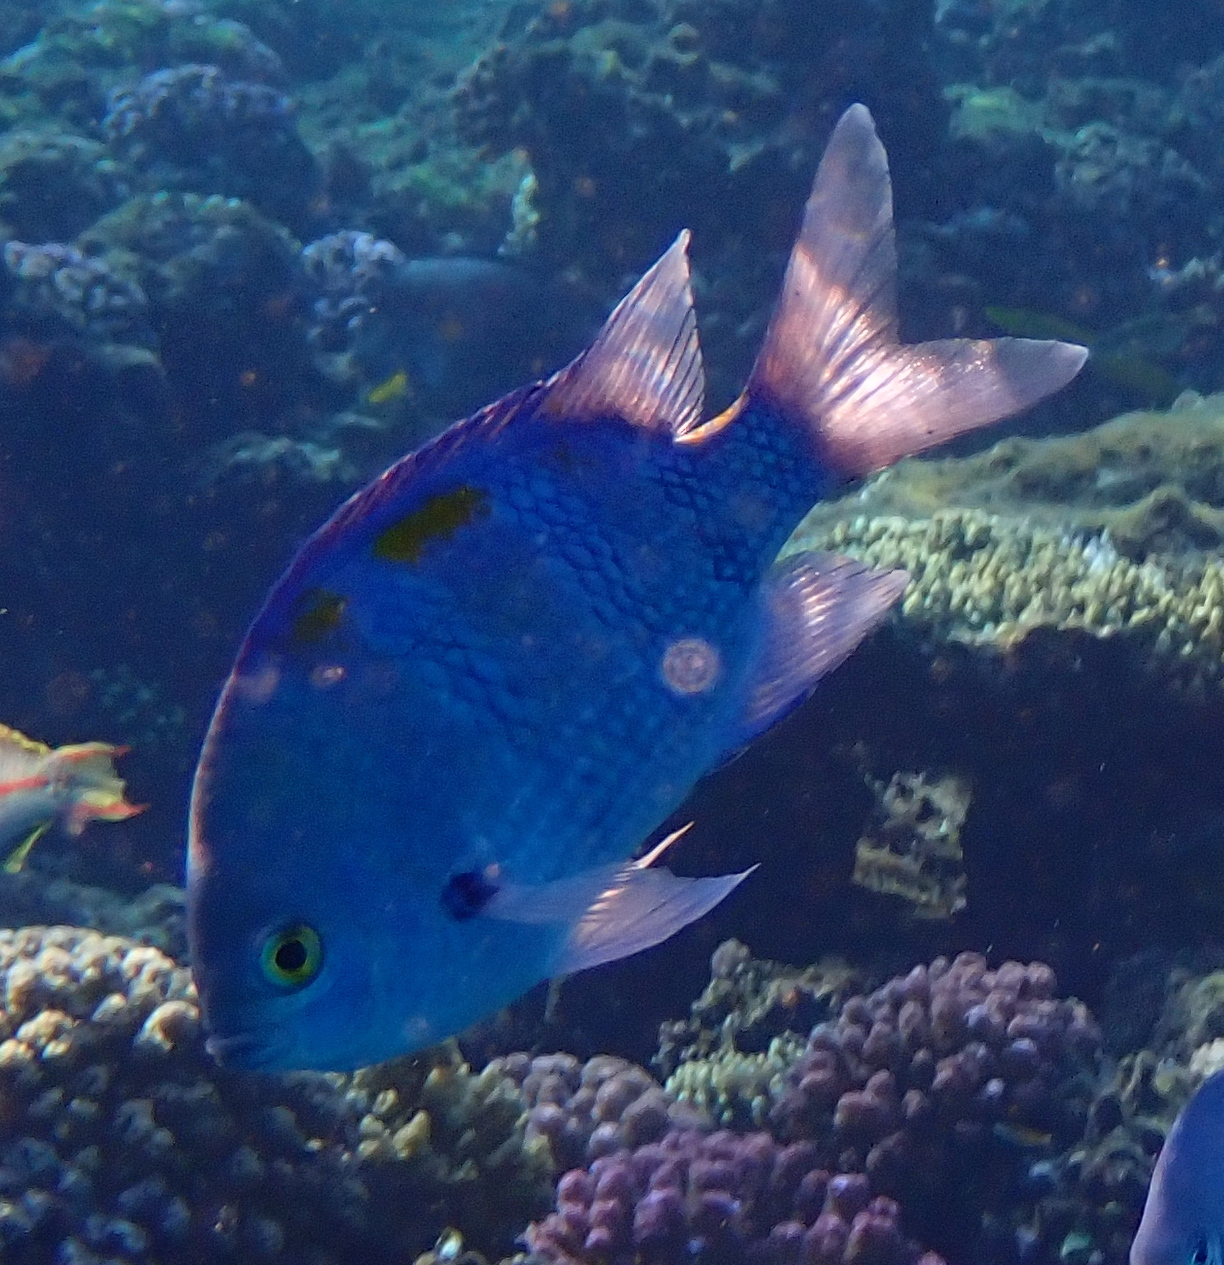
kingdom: Animalia
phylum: Chordata
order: Perciformes
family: Pomacentridae
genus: Abudefduf
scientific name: Abudefduf vaigiensis
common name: Indo-pacific sergeant
